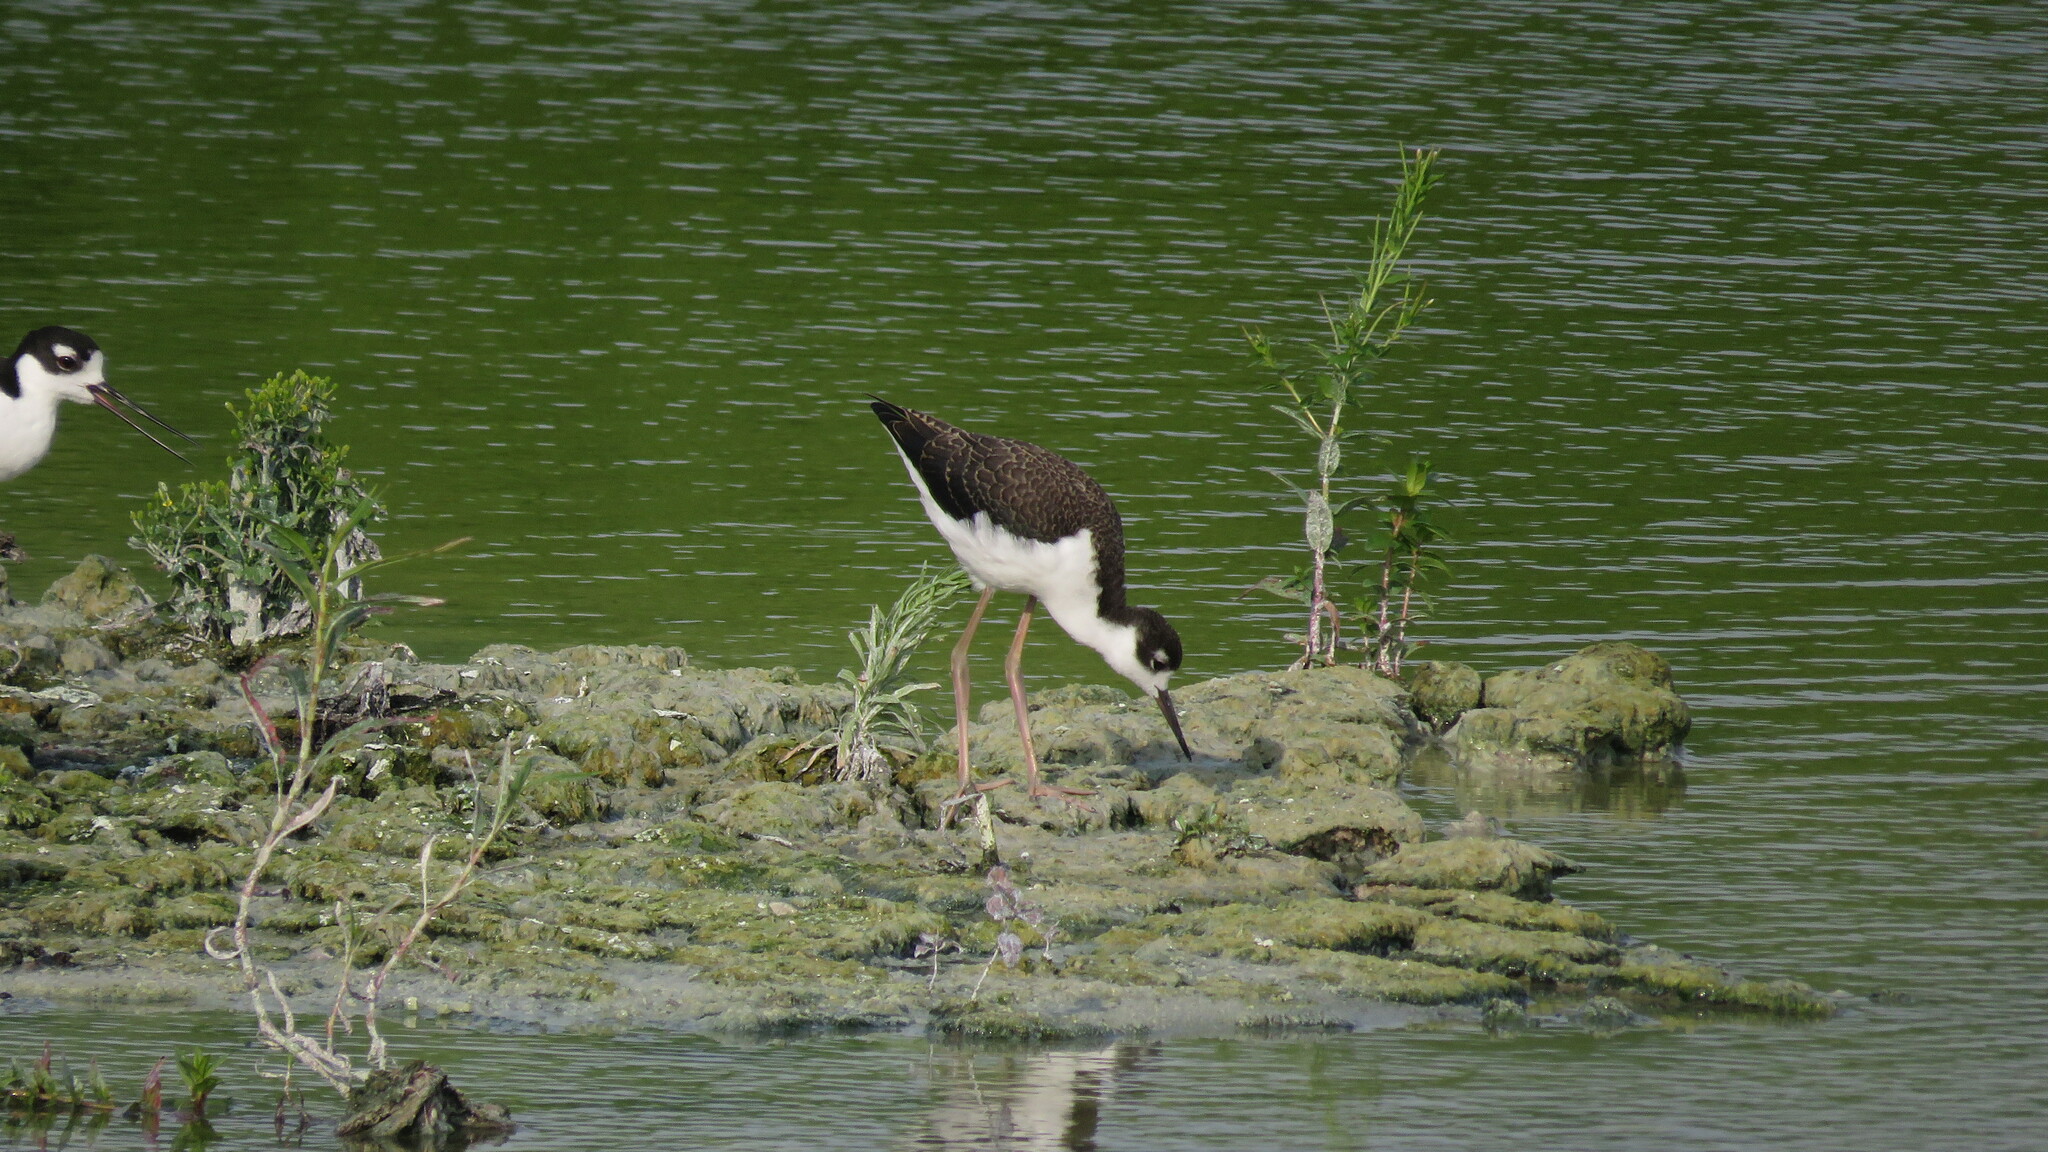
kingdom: Animalia
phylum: Chordata
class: Aves
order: Charadriiformes
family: Recurvirostridae
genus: Himantopus
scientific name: Himantopus mexicanus
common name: Black-necked stilt
